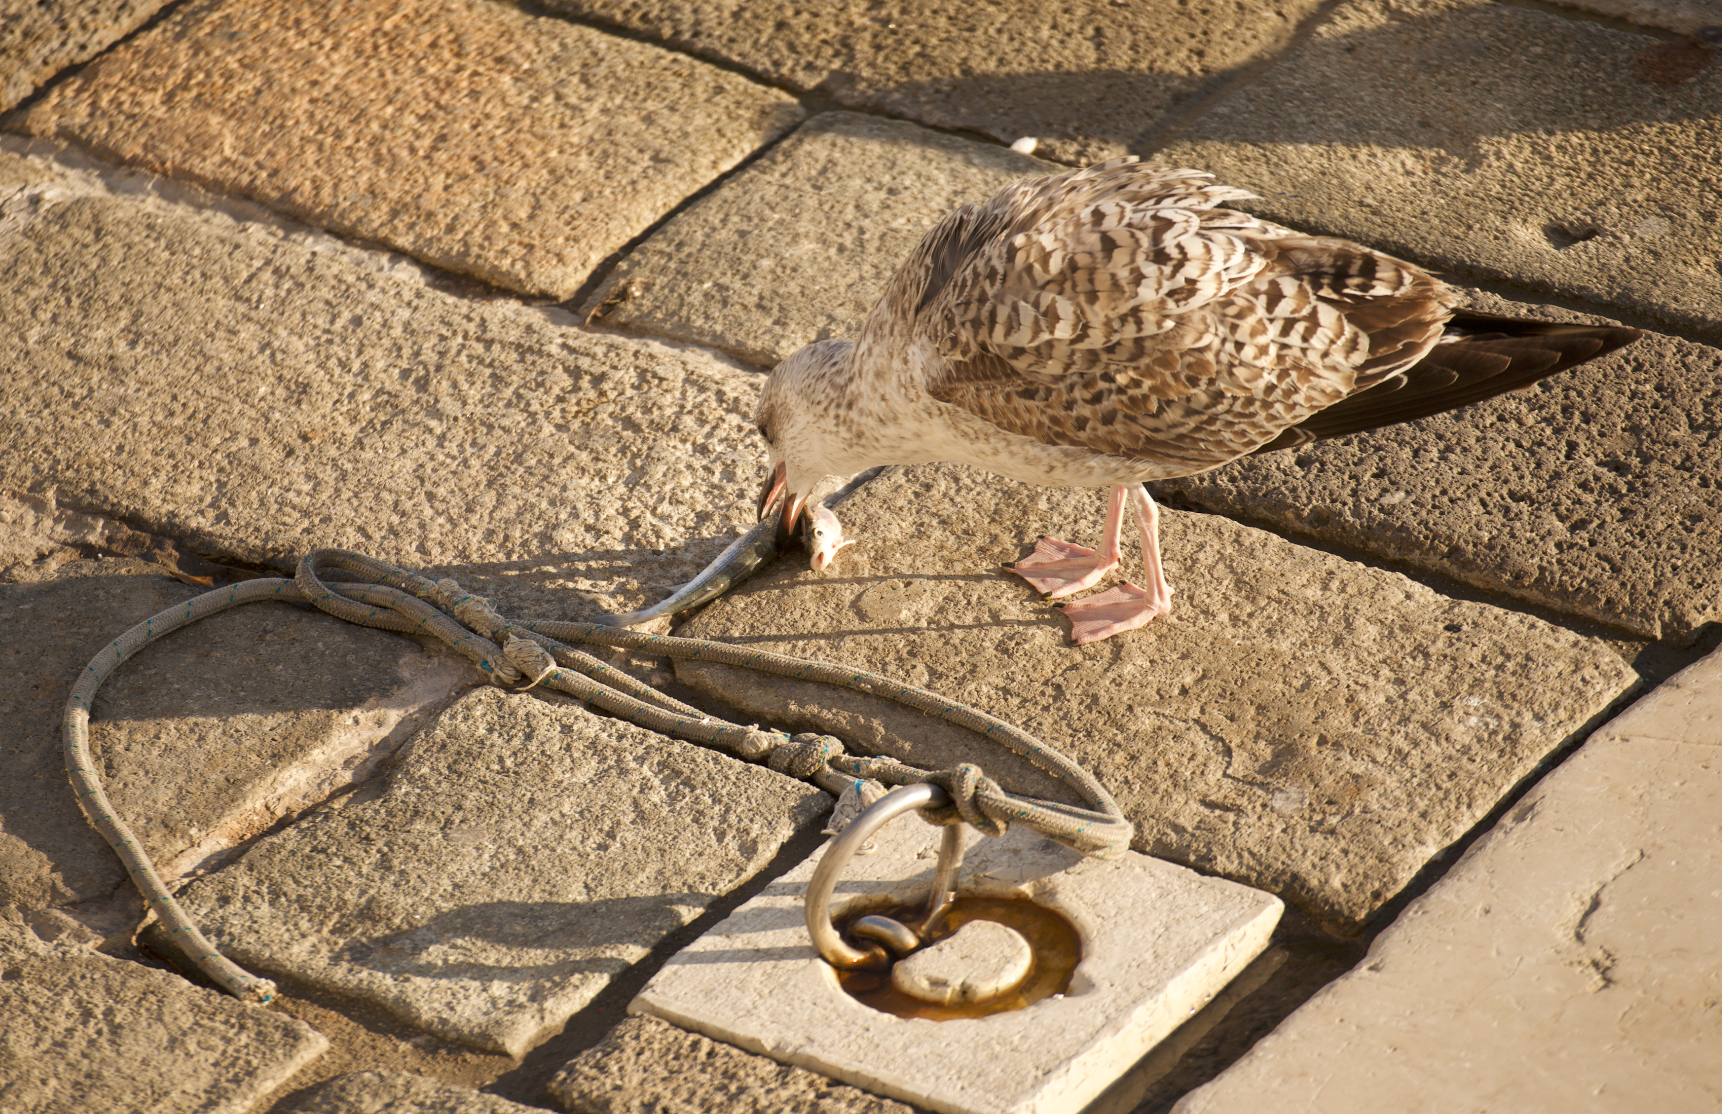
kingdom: Animalia
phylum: Chordata
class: Aves
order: Charadriiformes
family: Laridae
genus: Larus
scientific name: Larus michahellis
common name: Yellow-legged gull
